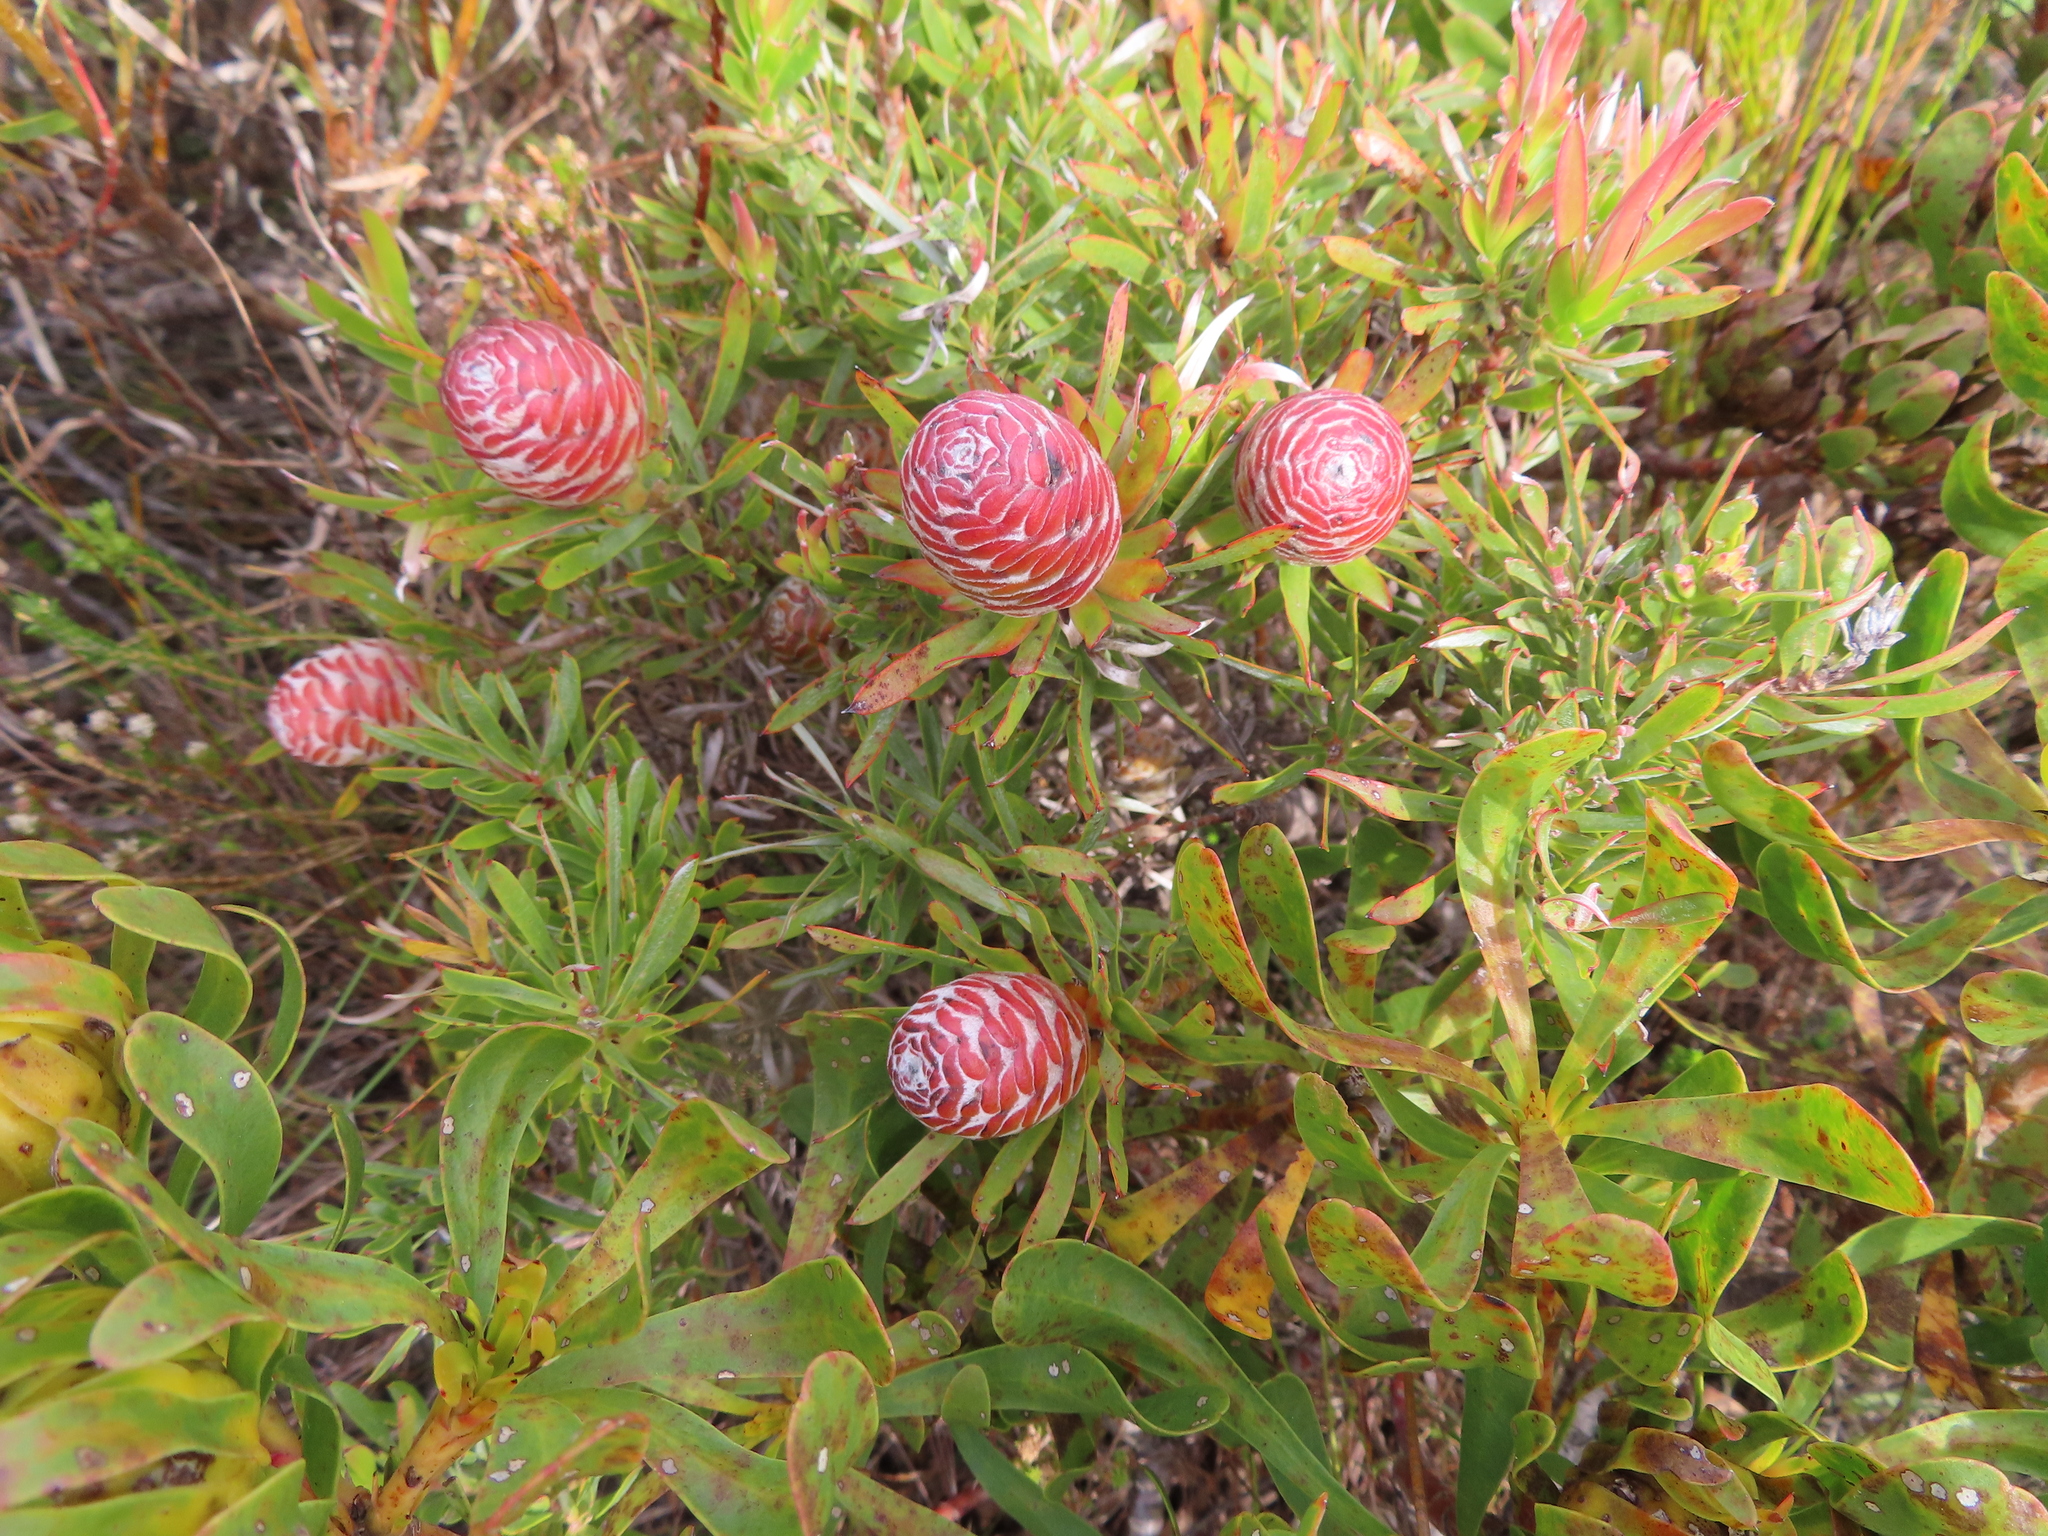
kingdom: Plantae
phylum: Tracheophyta
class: Magnoliopsida
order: Proteales
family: Proteaceae
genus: Leucadendron
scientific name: Leucadendron xanthoconus
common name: Sickle-leaf conebush
